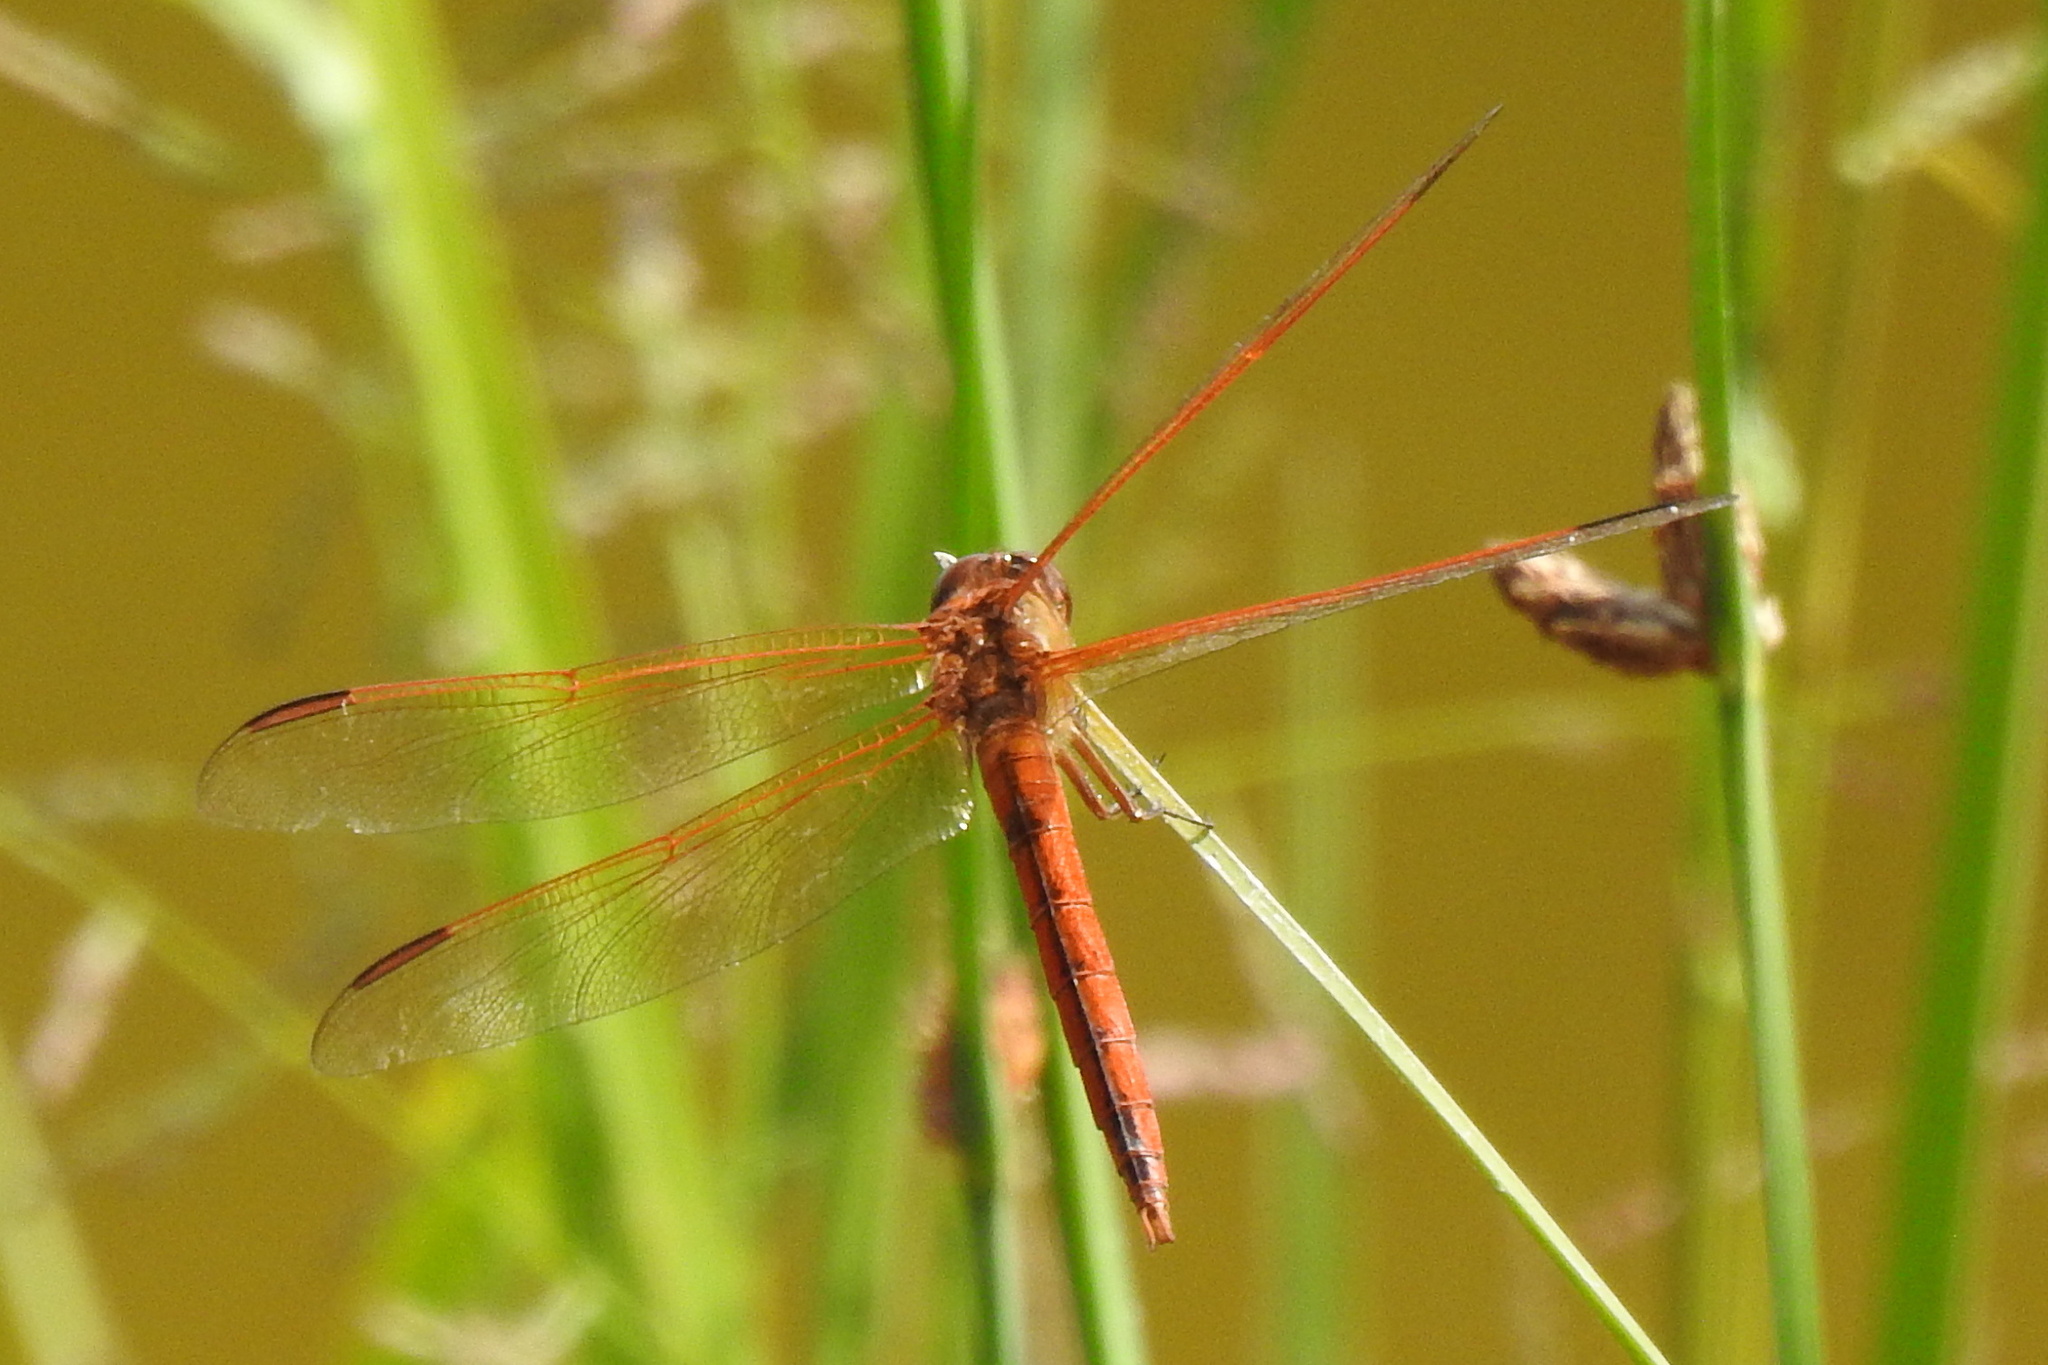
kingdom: Animalia
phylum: Arthropoda
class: Insecta
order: Odonata
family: Libellulidae
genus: Libellula
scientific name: Libellula needhami
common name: Needham's skimmer
